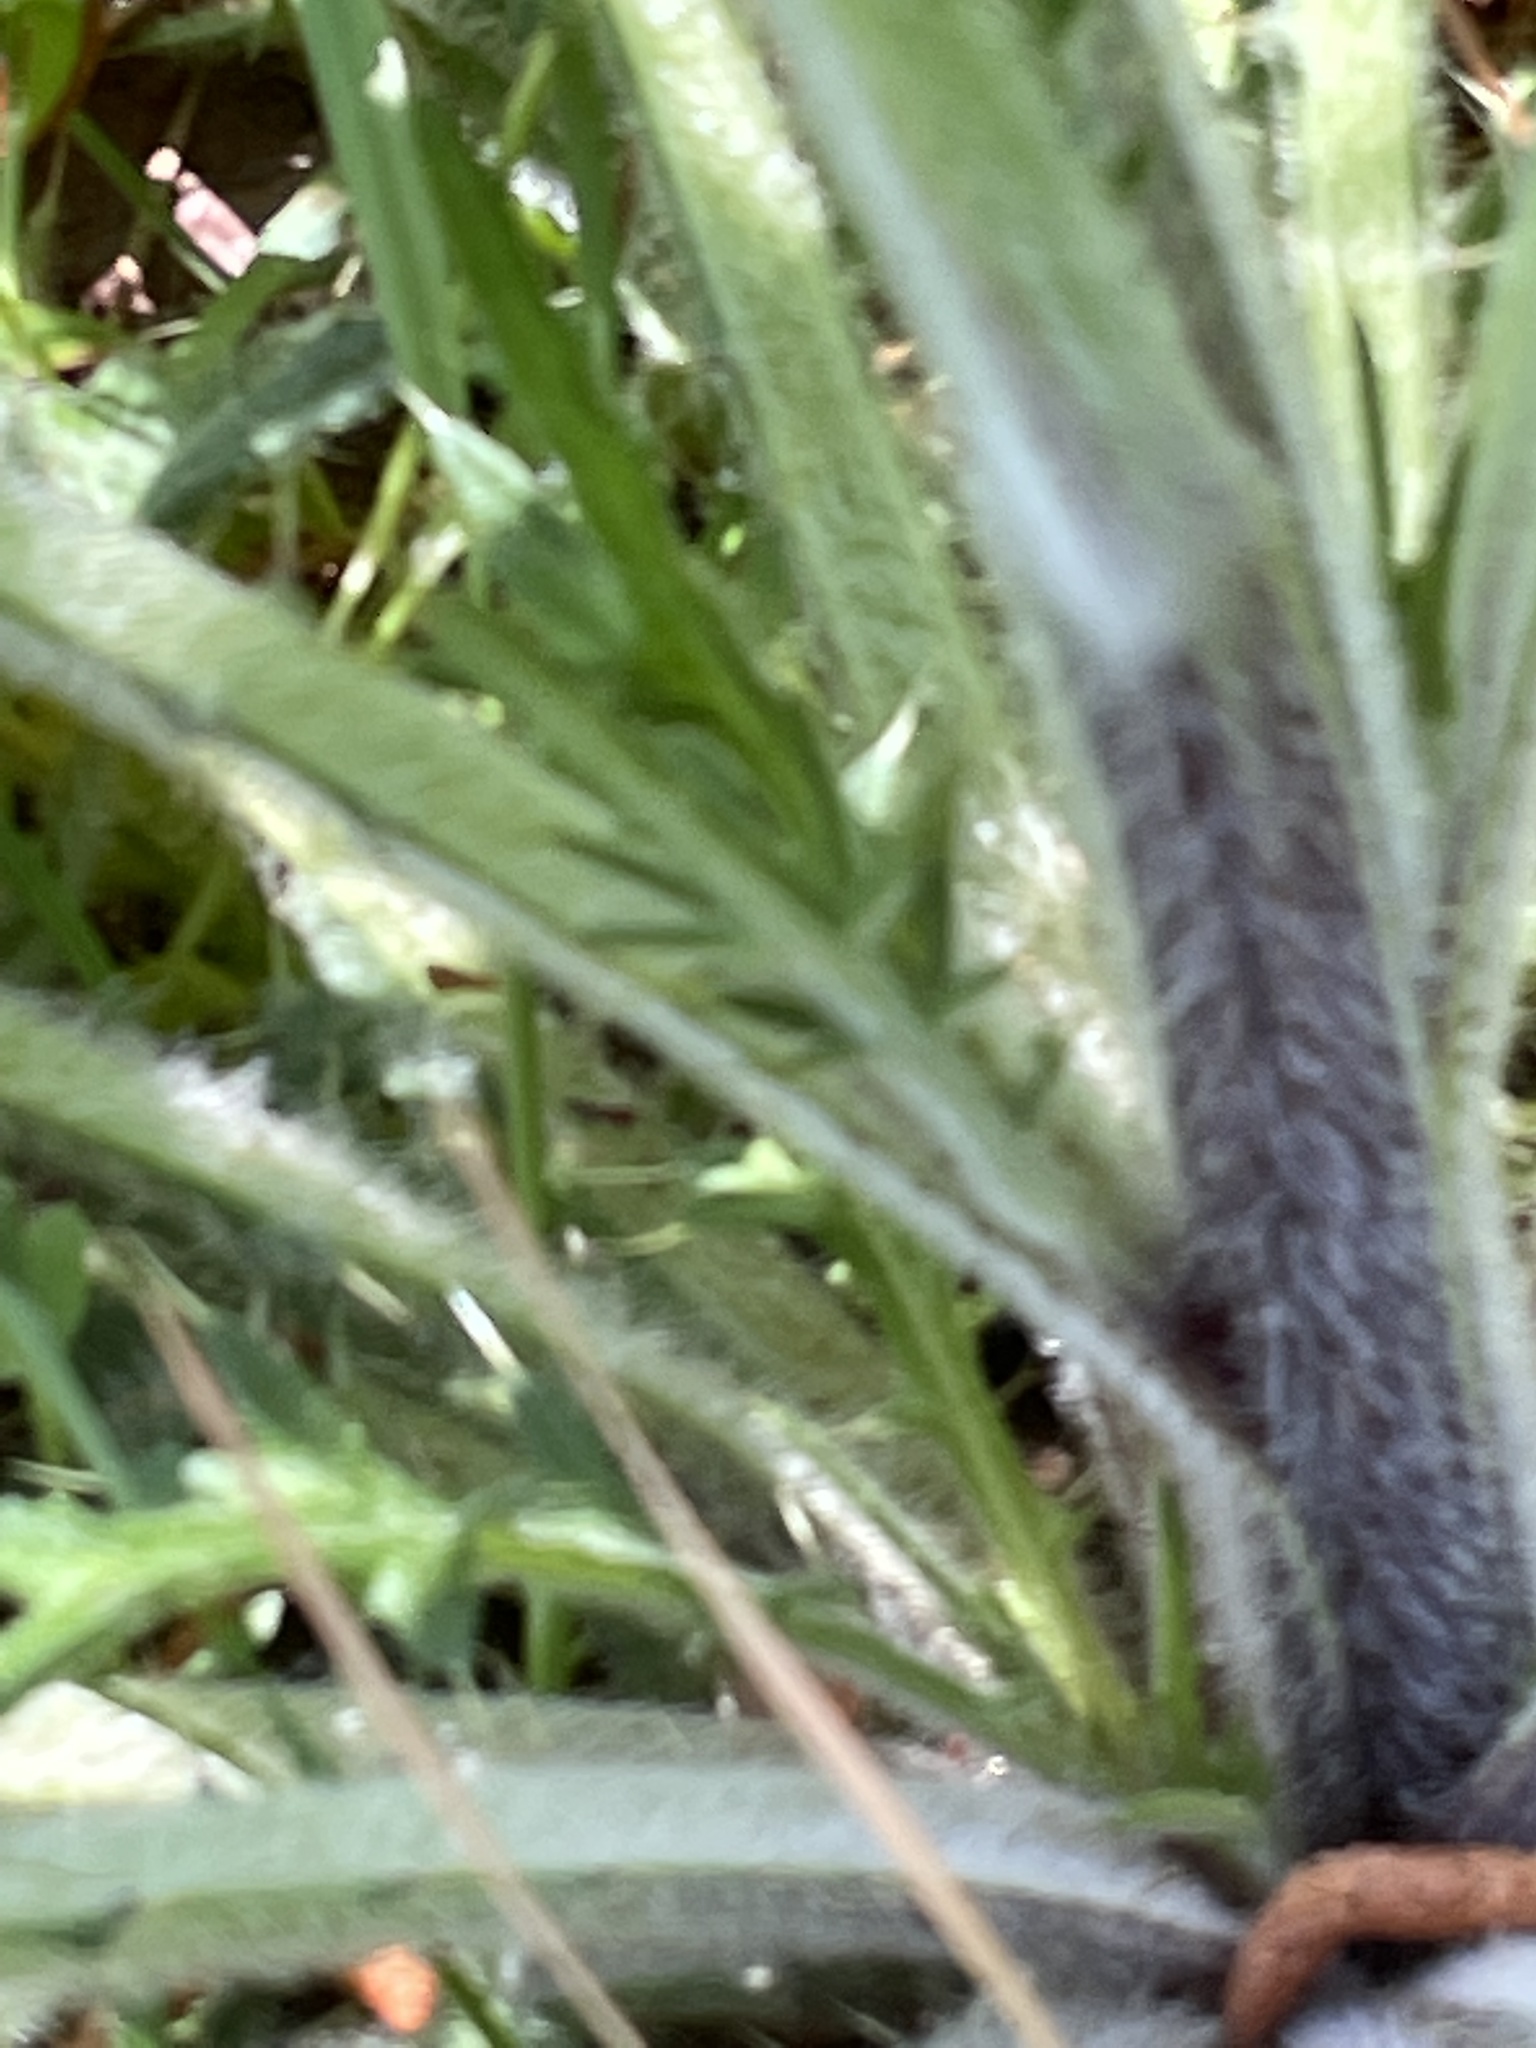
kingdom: Plantae
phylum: Tracheophyta
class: Magnoliopsida
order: Asterales
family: Asteraceae
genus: Cirsium
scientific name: Cirsium vulgare
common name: Bull thistle
